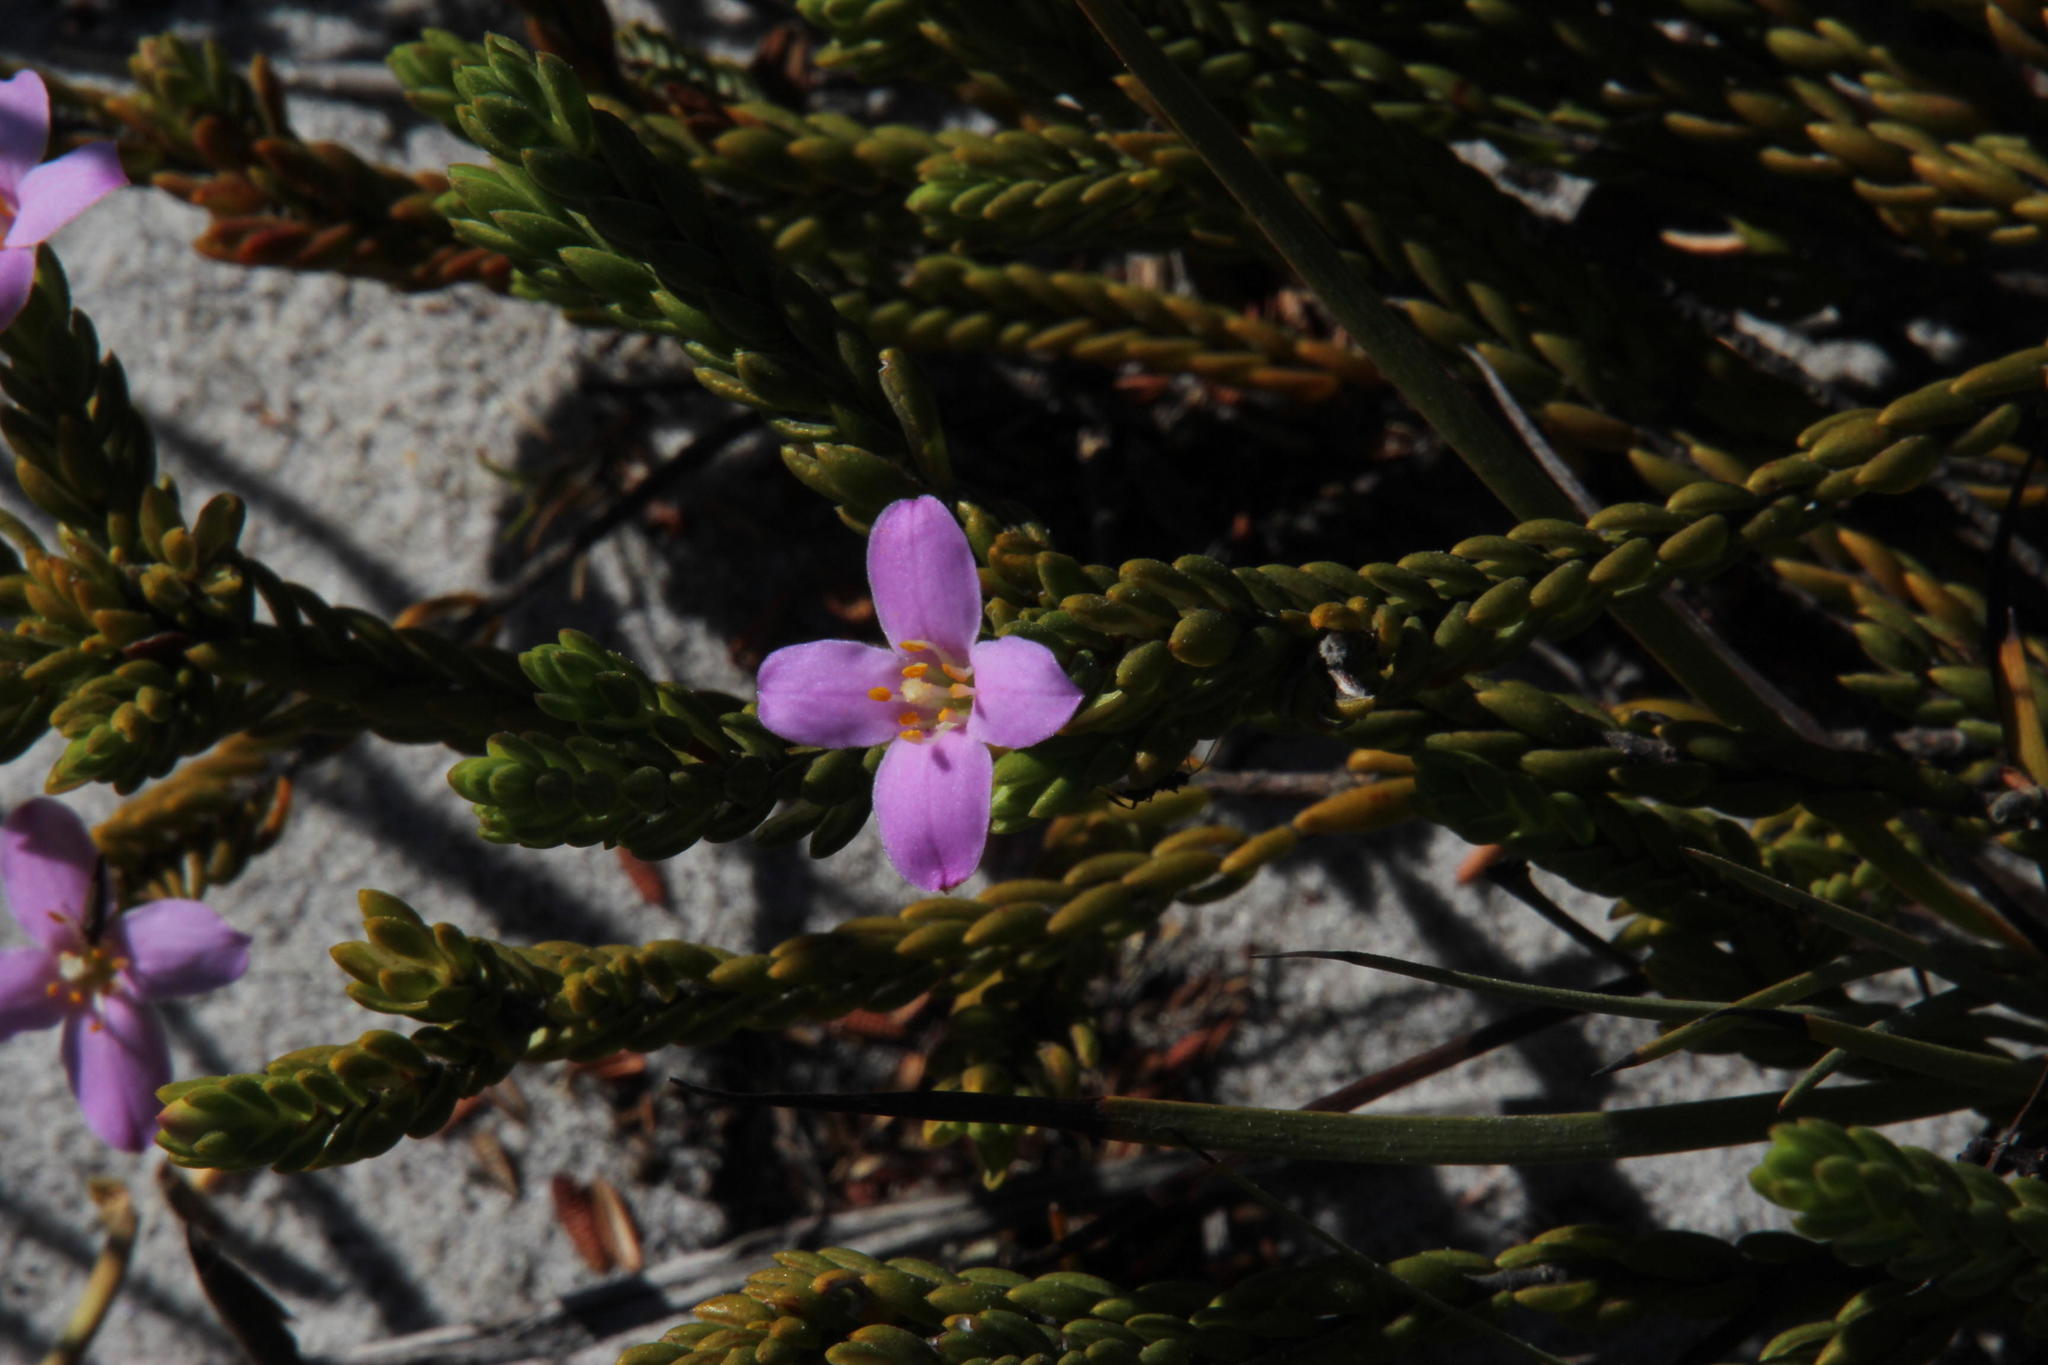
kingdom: Plantae
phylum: Tracheophyta
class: Magnoliopsida
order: Malvales
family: Thymelaeaceae
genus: Lachnaea
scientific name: Lachnaea grandiflora
